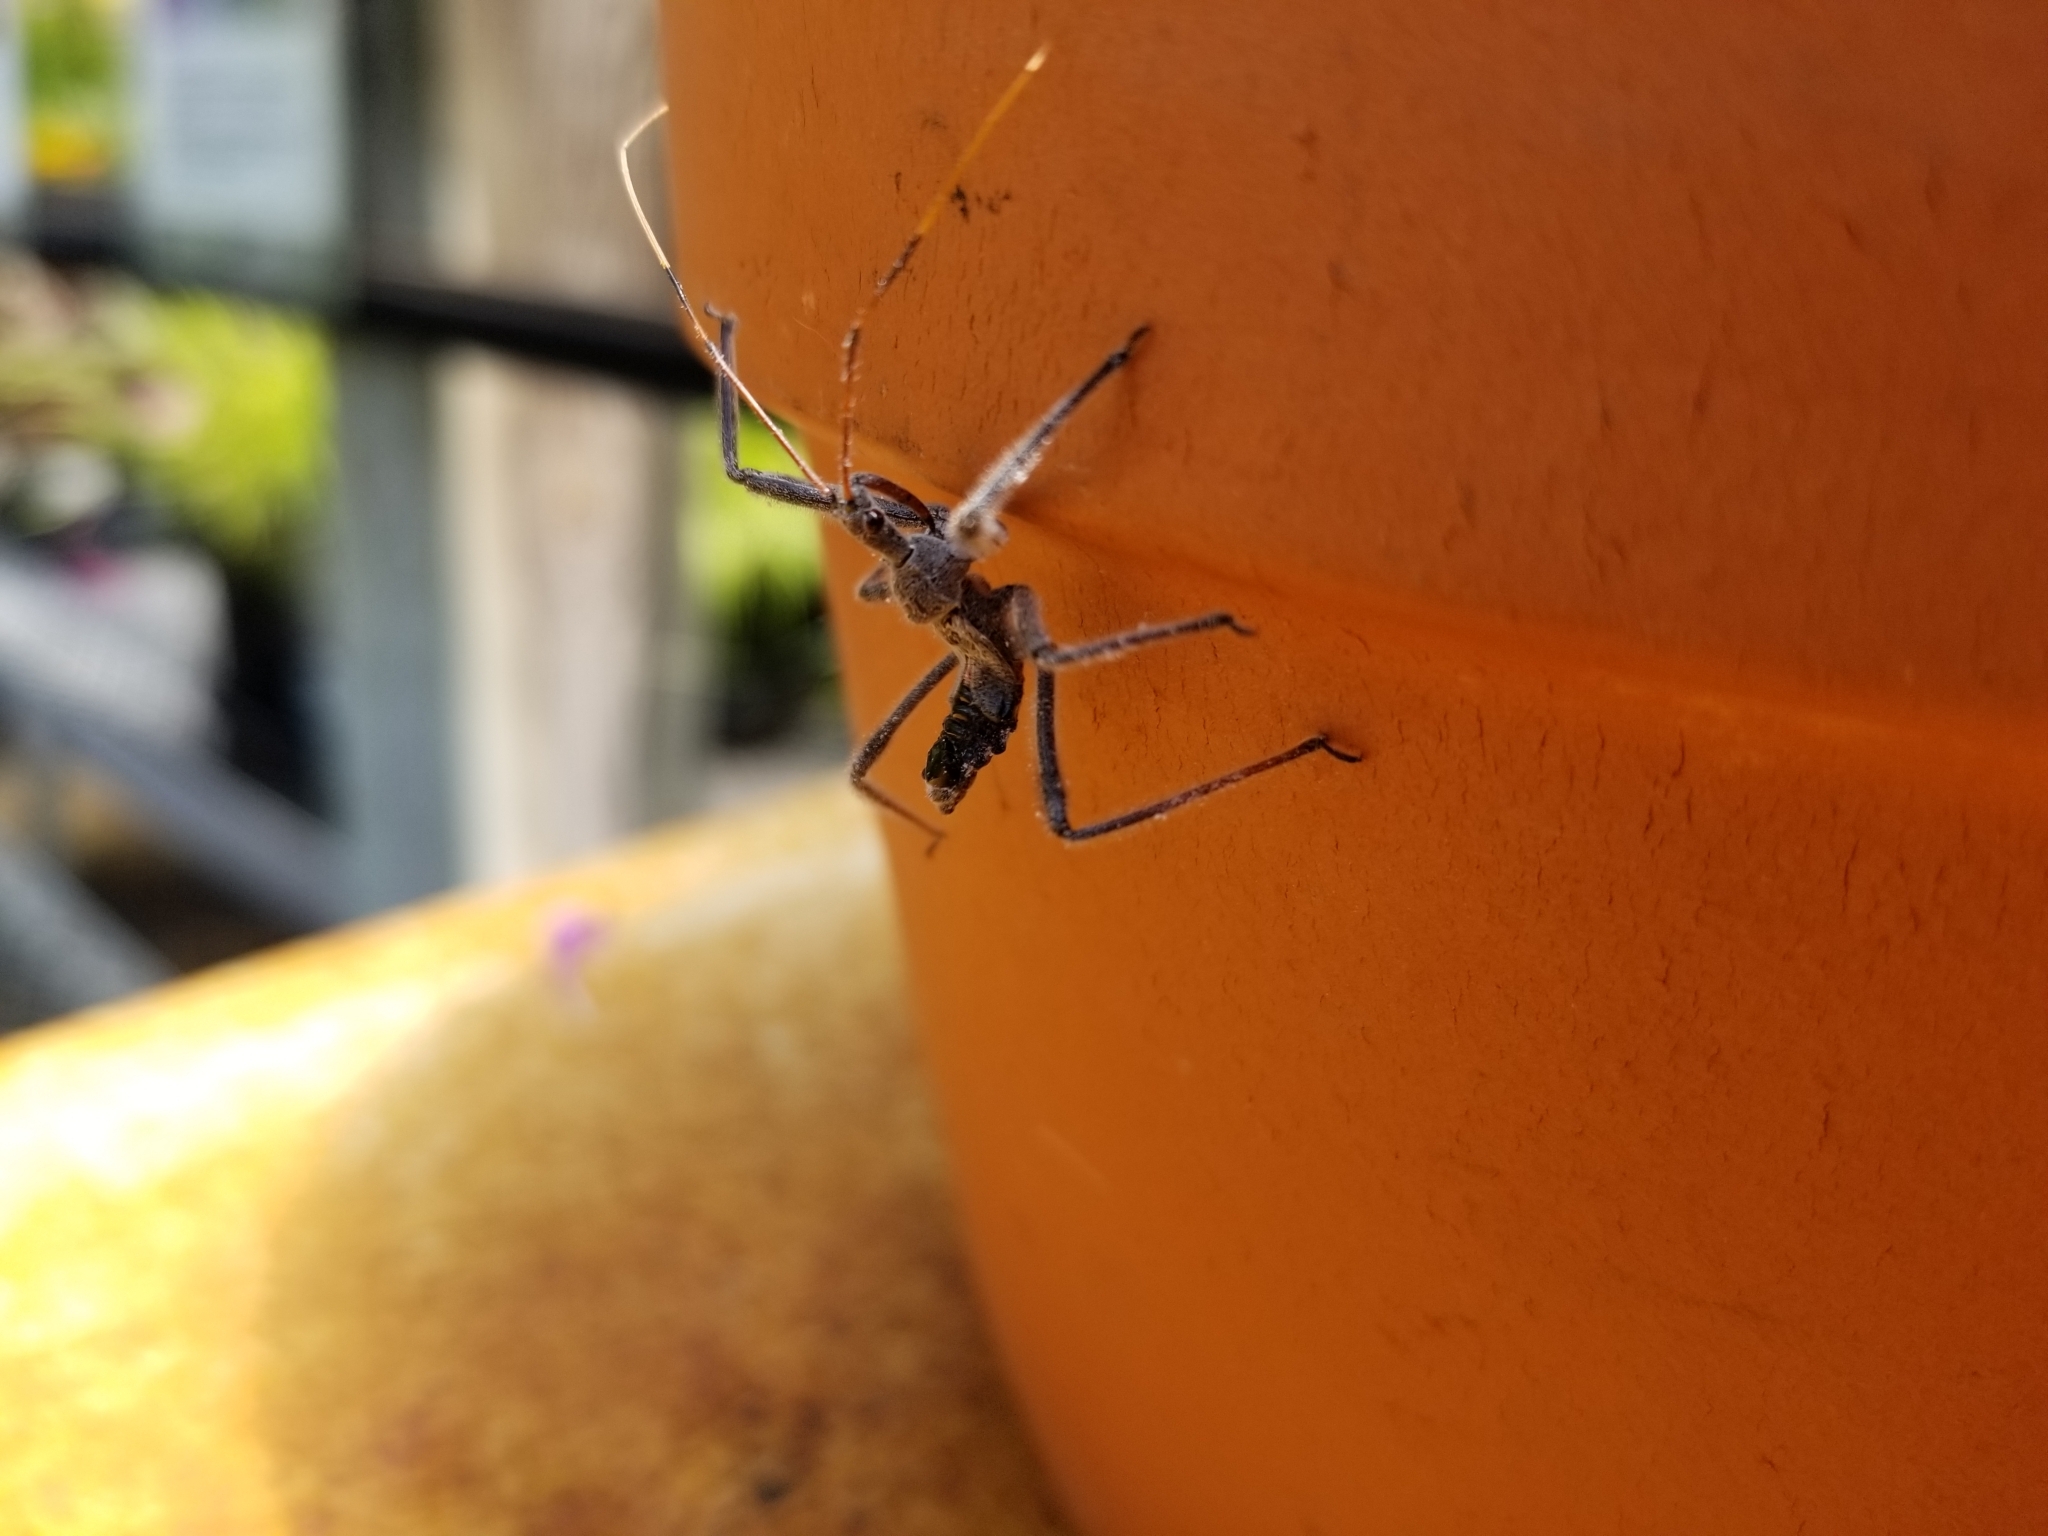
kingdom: Animalia
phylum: Arthropoda
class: Insecta
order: Hemiptera
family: Reduviidae
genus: Arilus
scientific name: Arilus cristatus
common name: North american wheel bug
